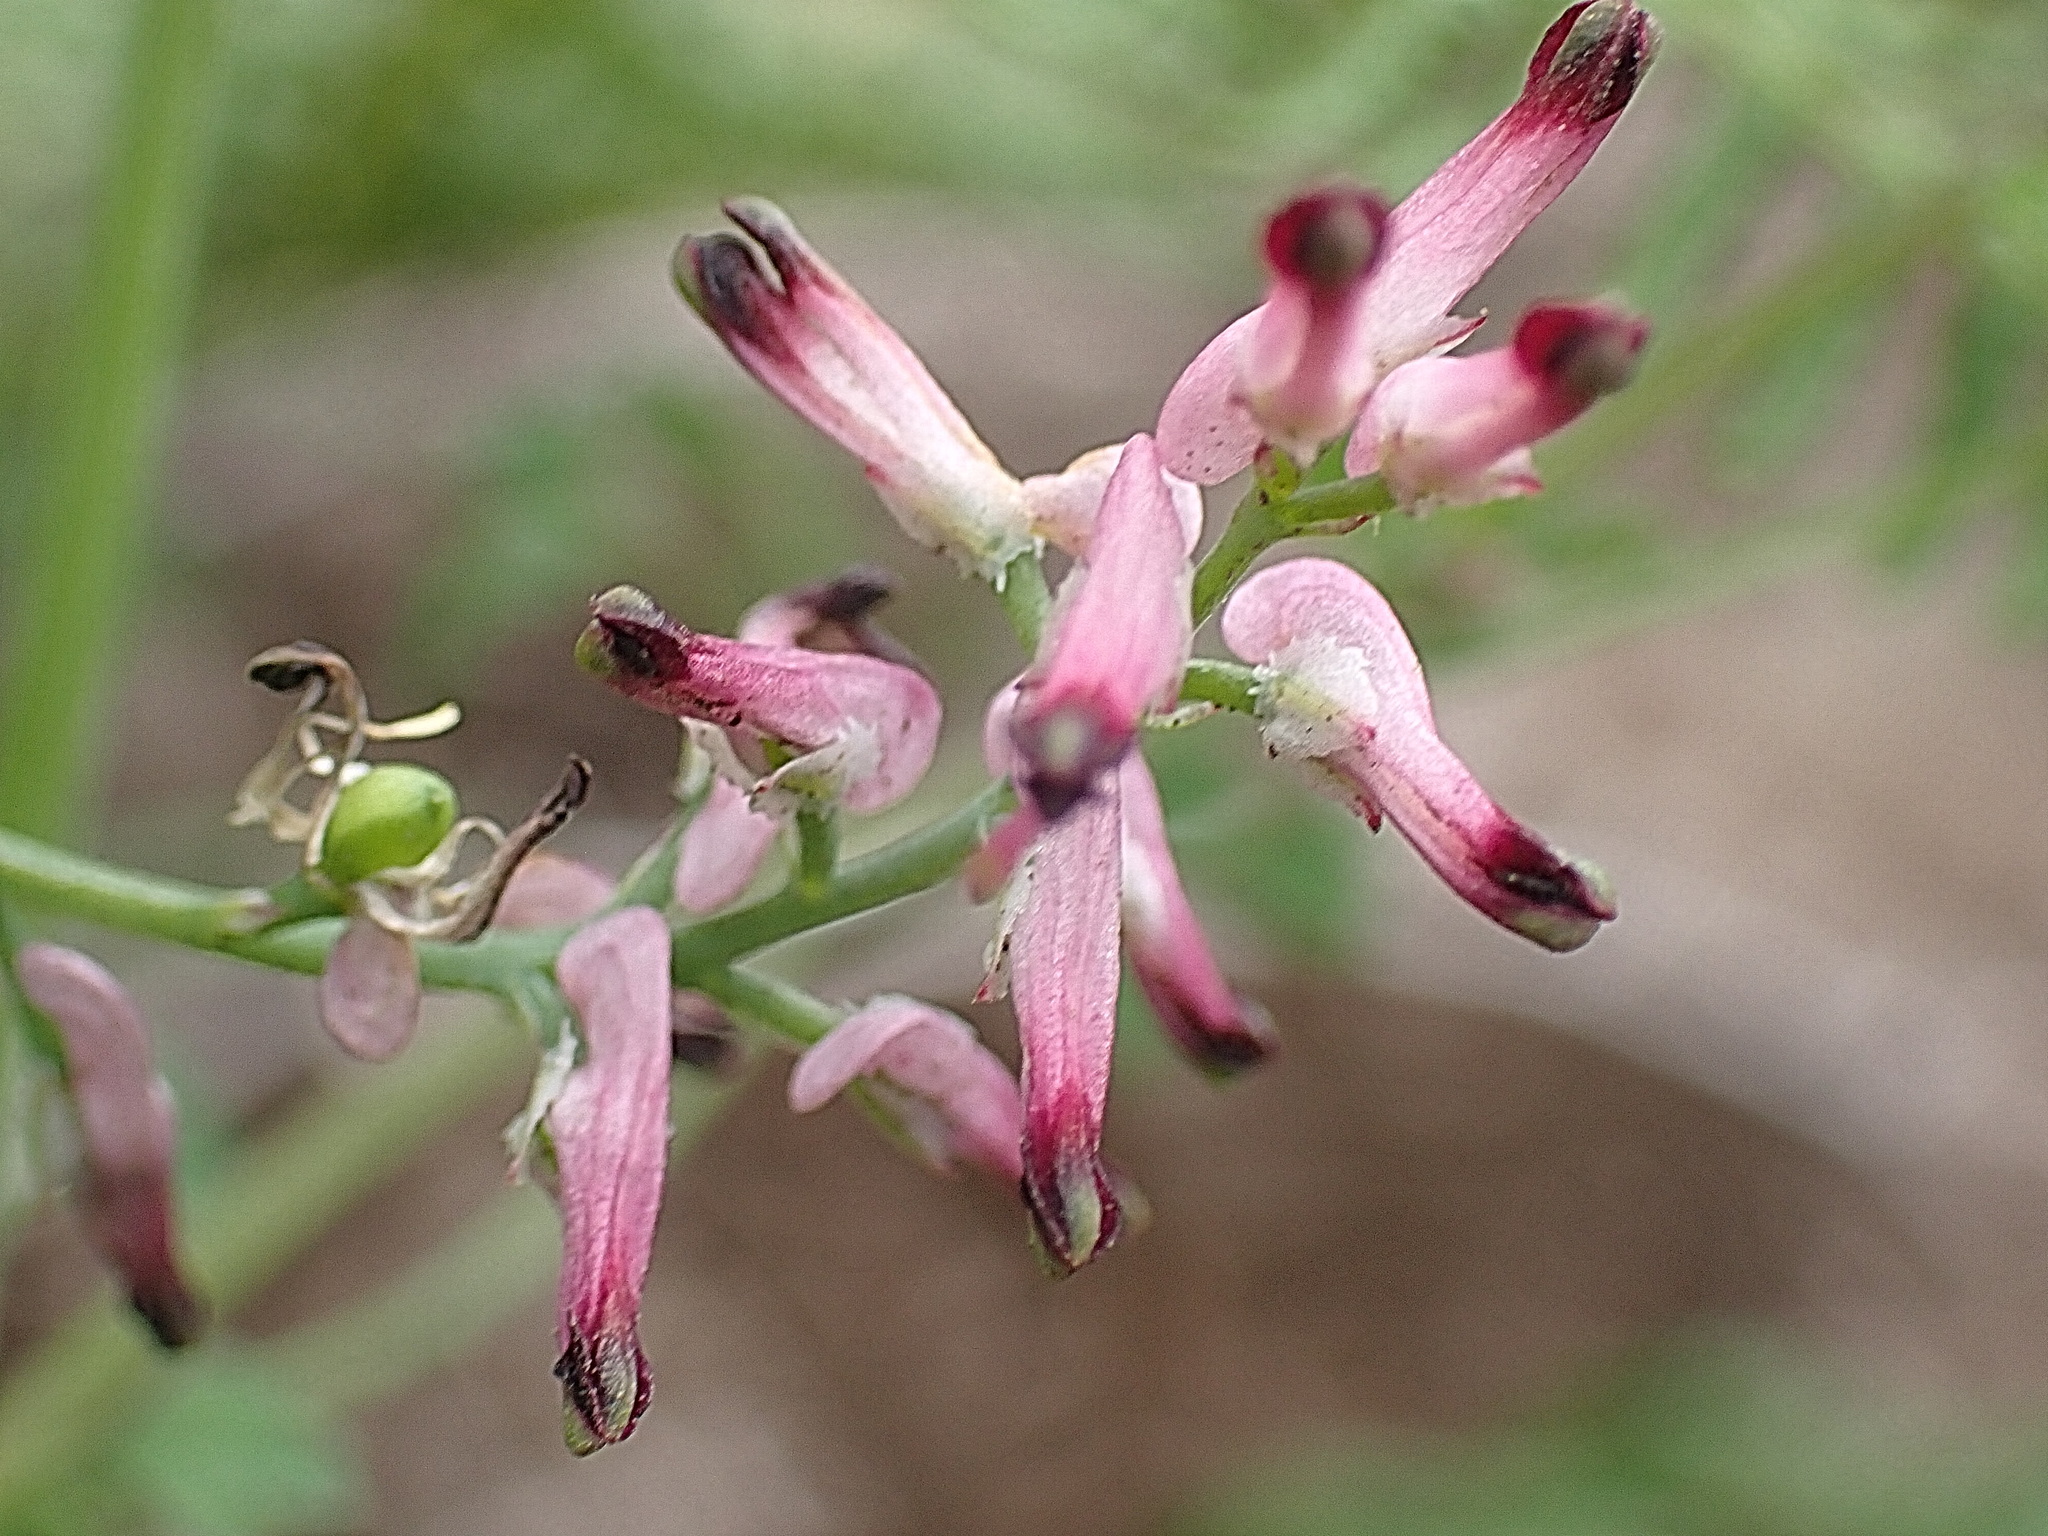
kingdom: Plantae
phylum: Tracheophyta
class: Magnoliopsida
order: Ranunculales
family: Papaveraceae
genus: Fumaria
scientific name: Fumaria muralis
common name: Common ramping-fumitory
